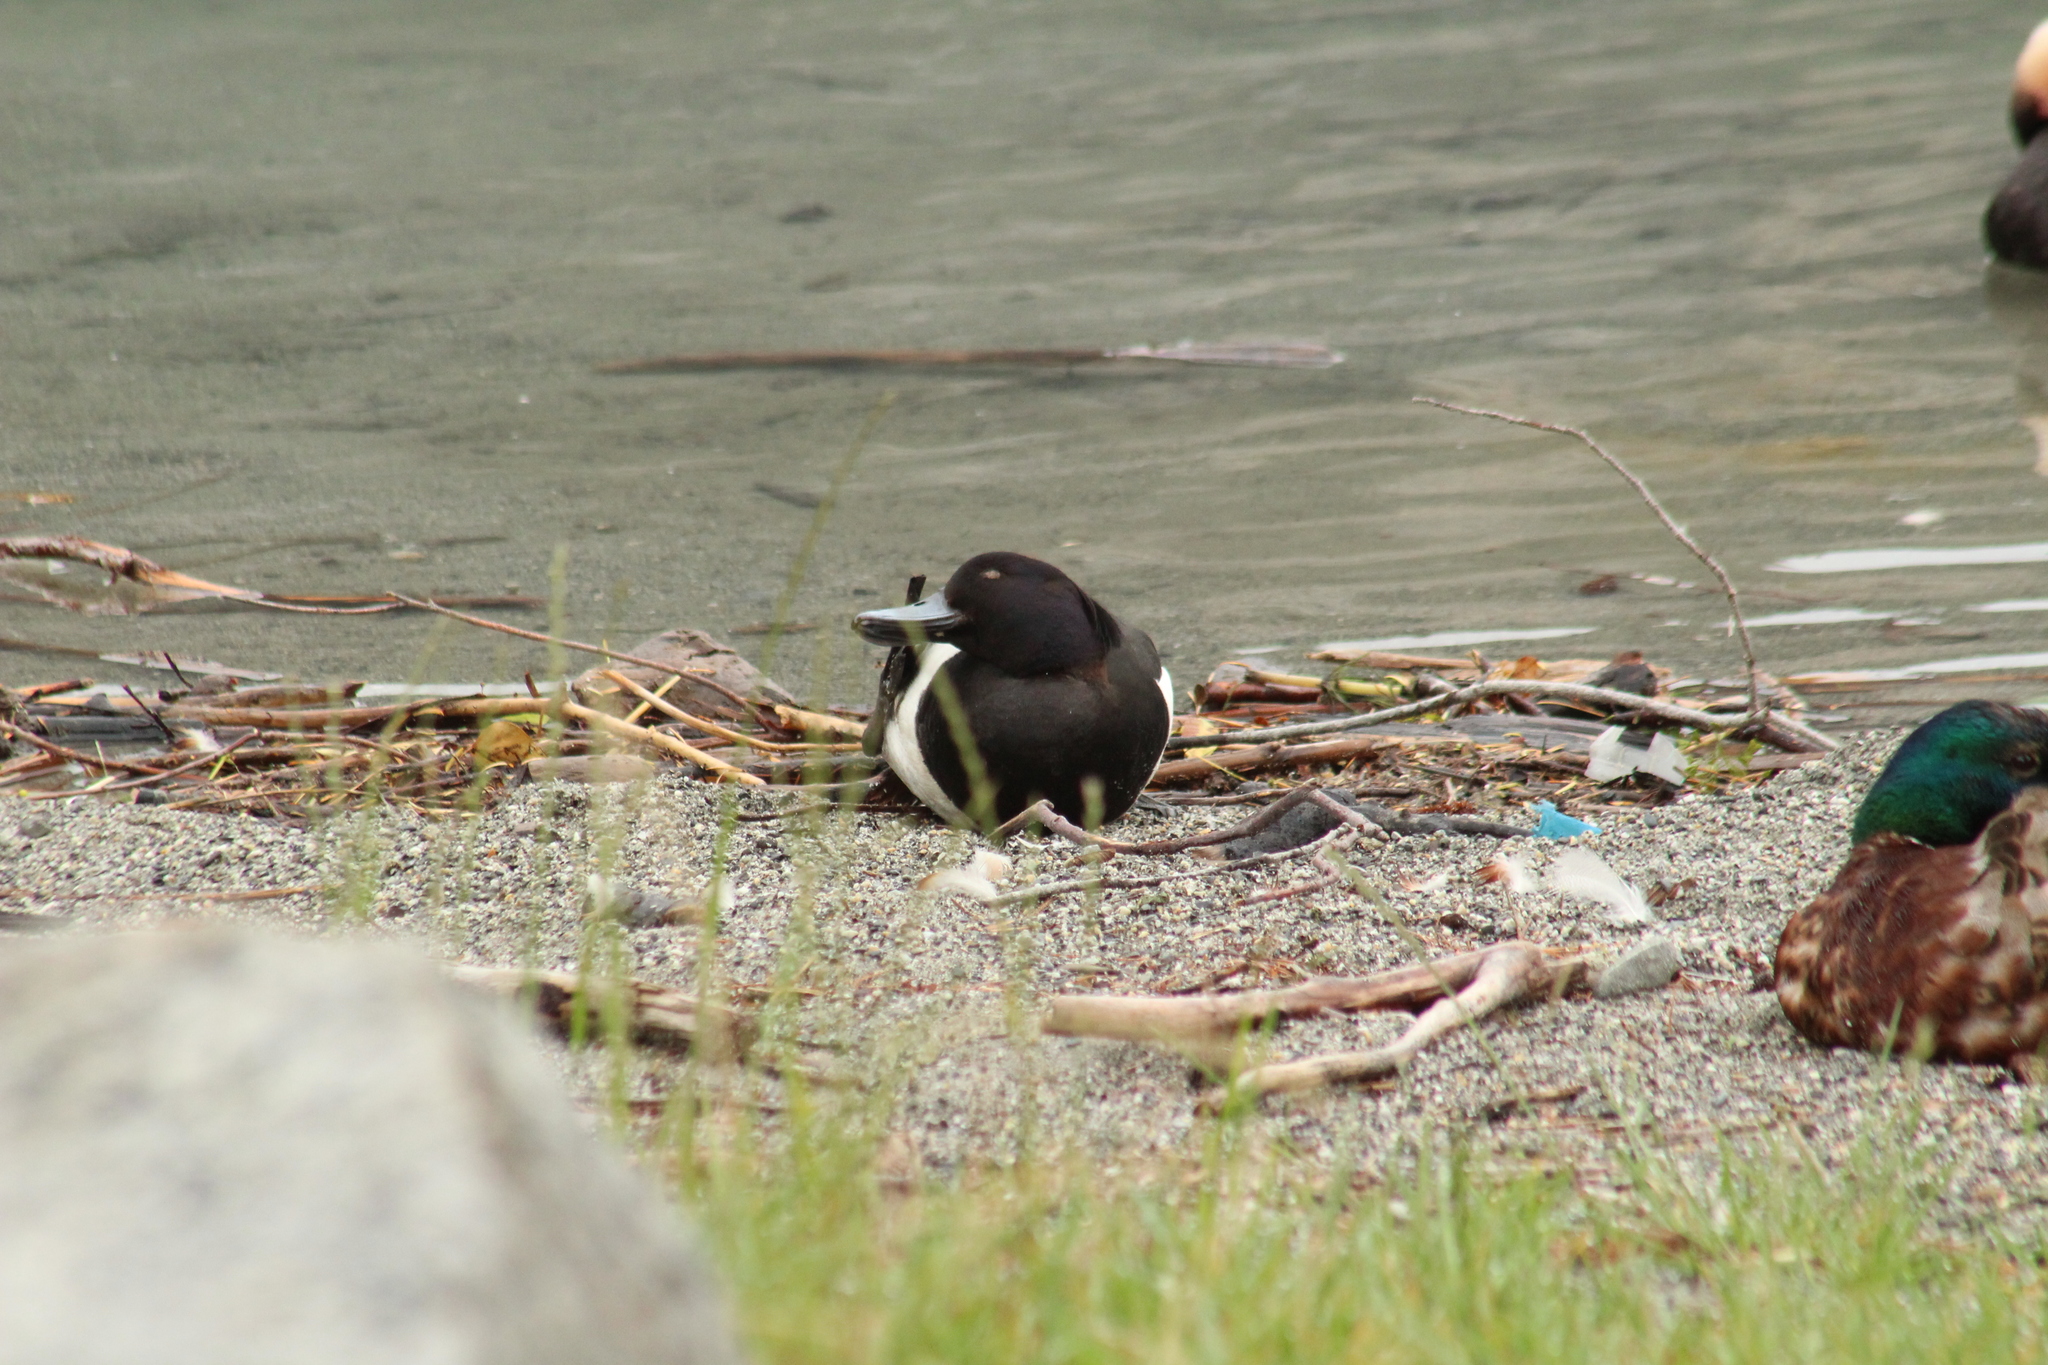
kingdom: Animalia
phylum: Chordata
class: Aves
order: Anseriformes
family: Anatidae
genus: Aythya
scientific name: Aythya fuligula
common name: Tufted duck
